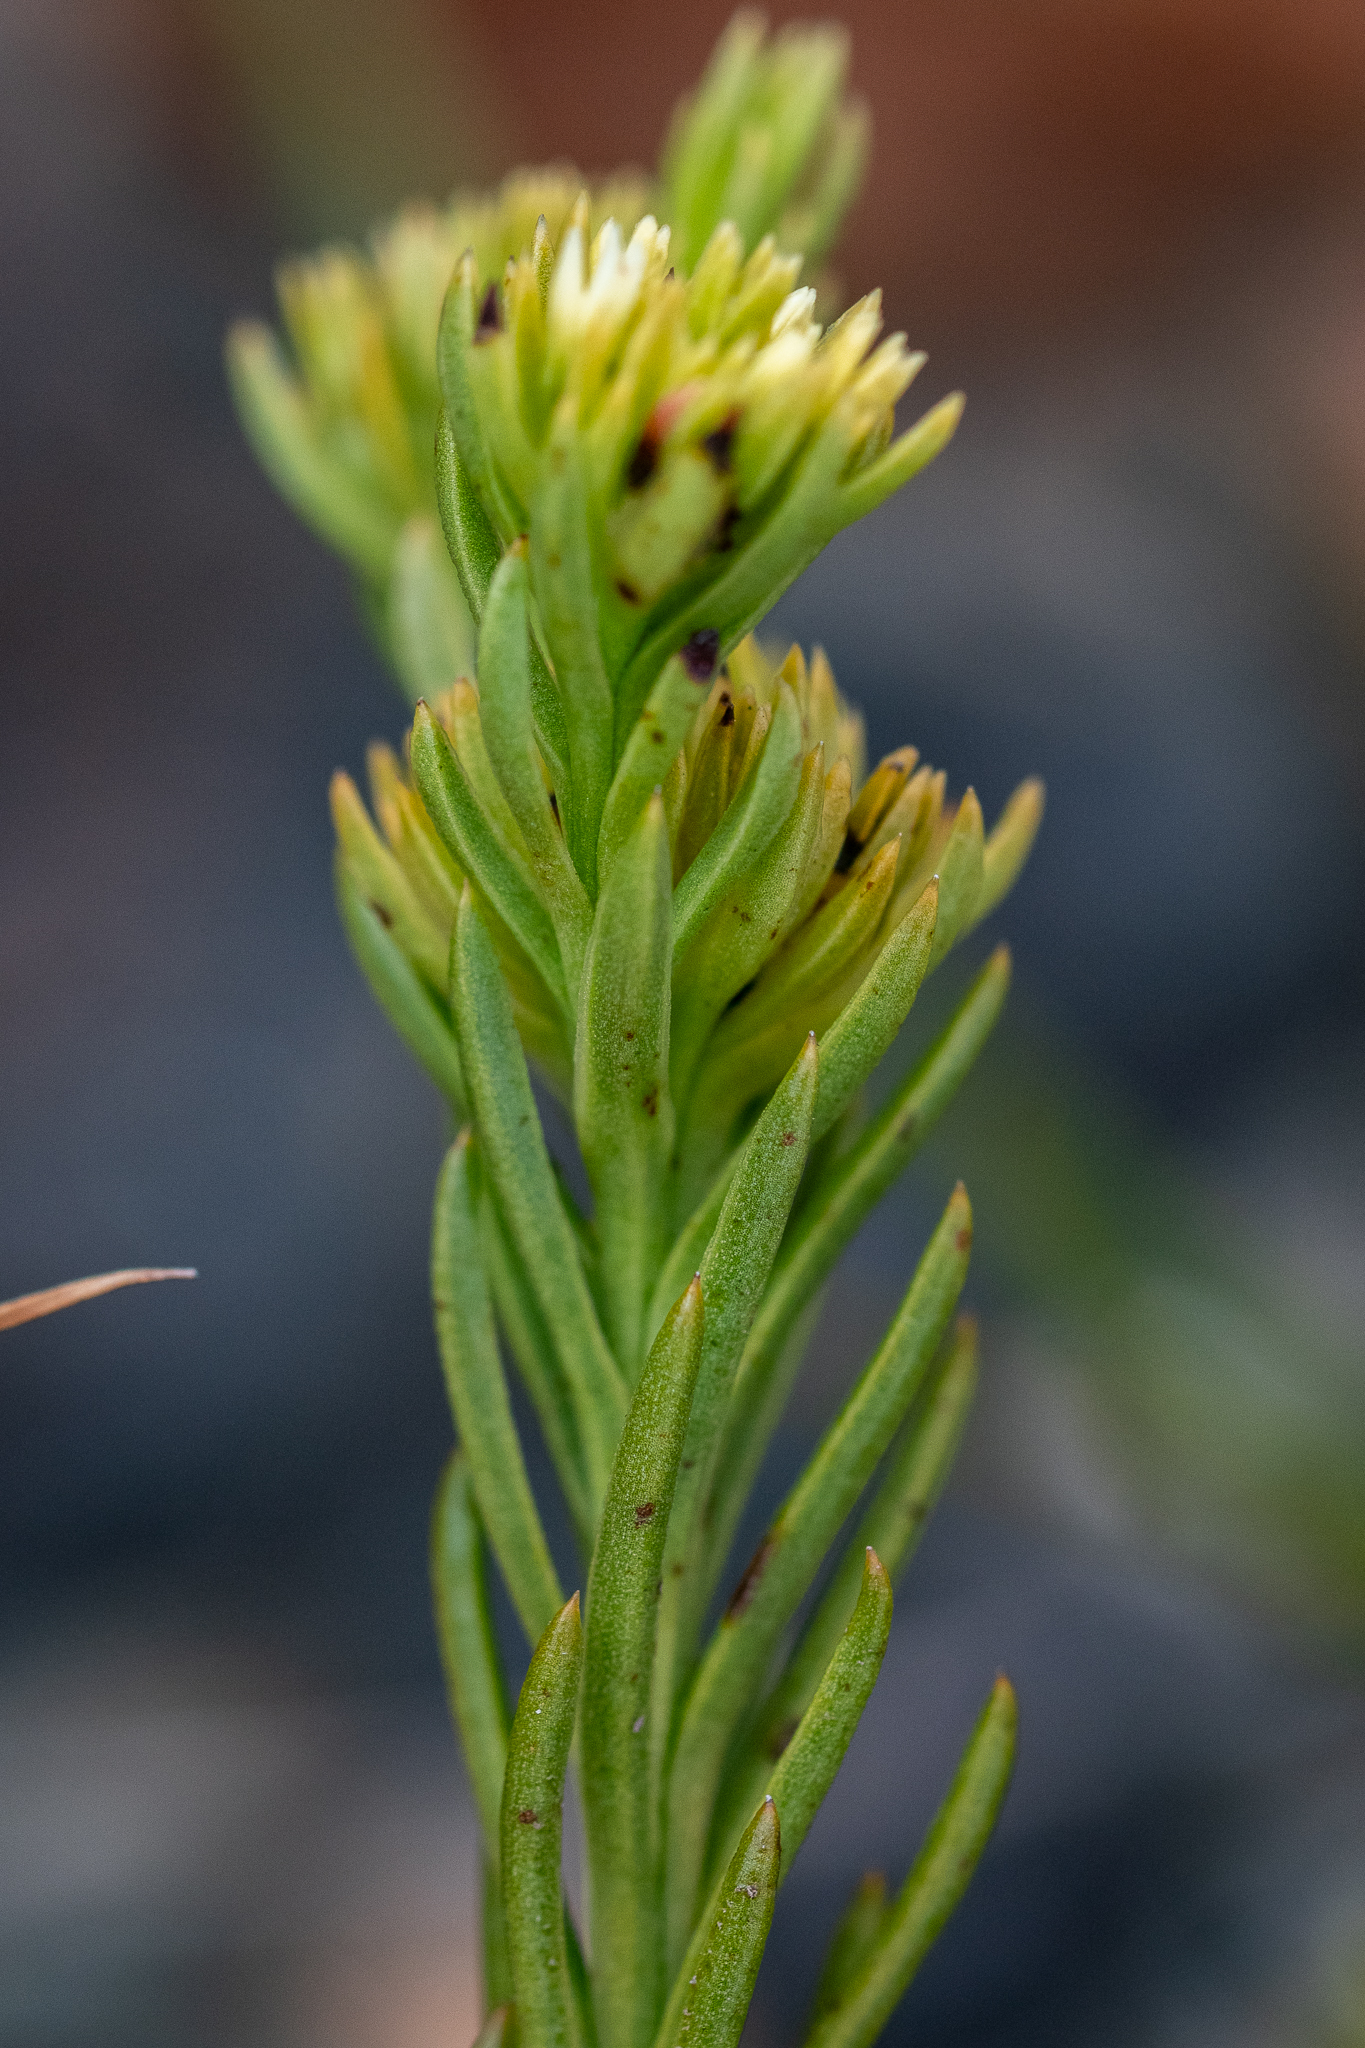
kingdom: Plantae
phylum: Tracheophyta
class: Magnoliopsida
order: Santalales
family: Thesiaceae
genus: Thesium
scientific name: Thesium capitatum
